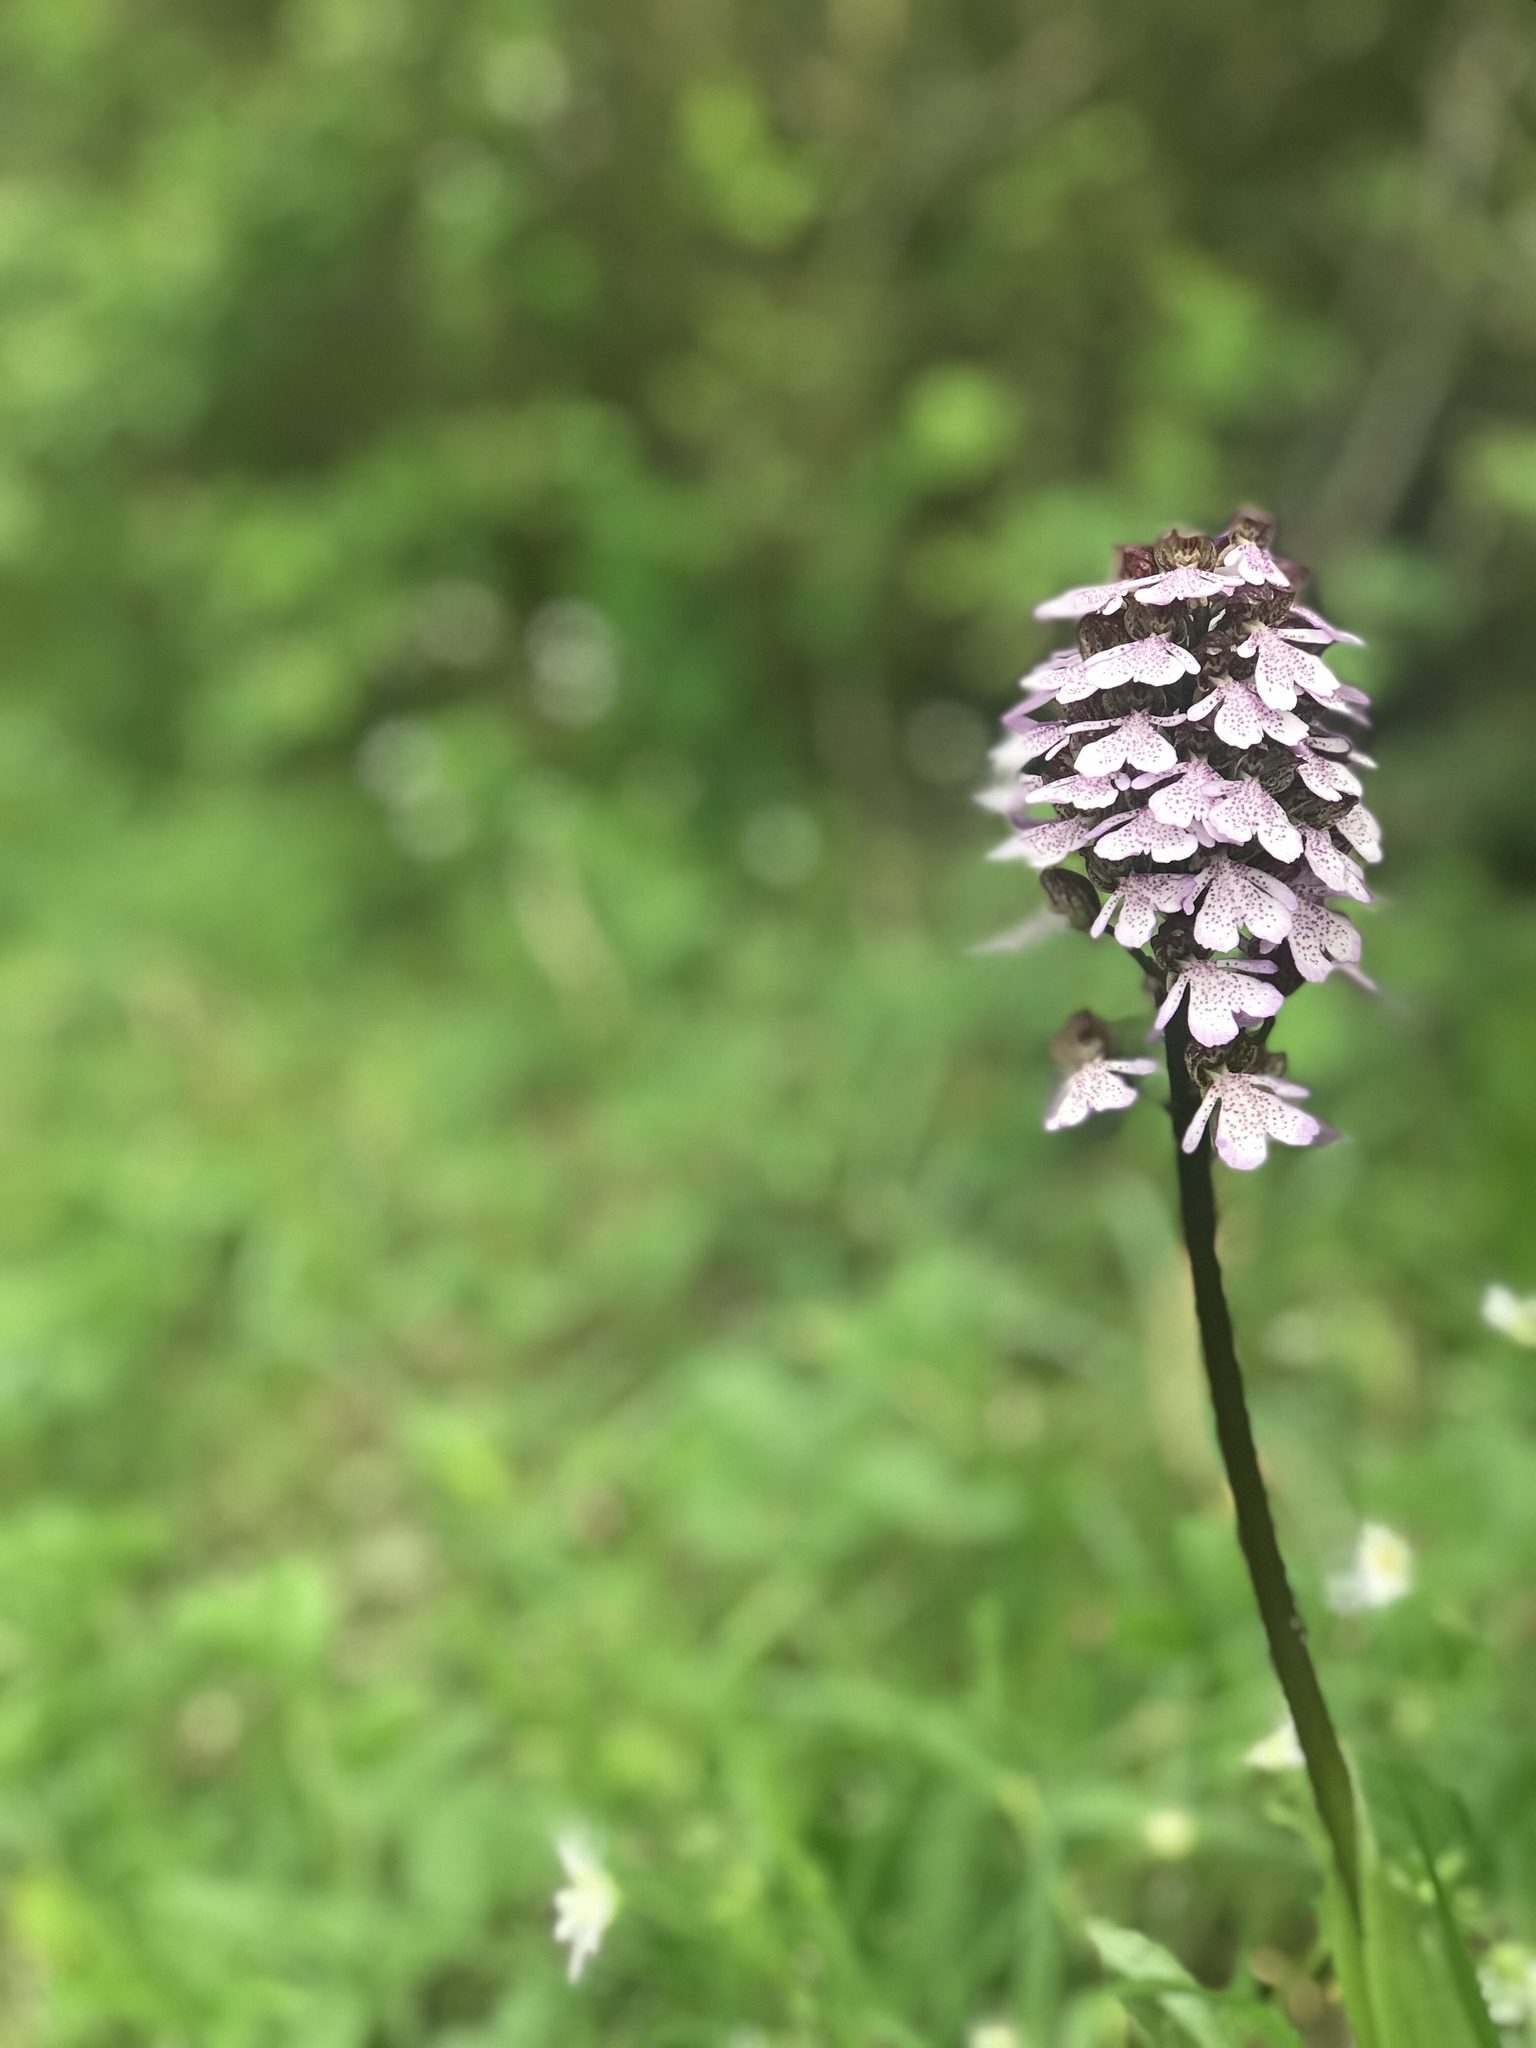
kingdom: Plantae
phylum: Tracheophyta
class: Liliopsida
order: Asparagales
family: Orchidaceae
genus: Orchis
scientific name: Orchis purpurea
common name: Lady orchid
